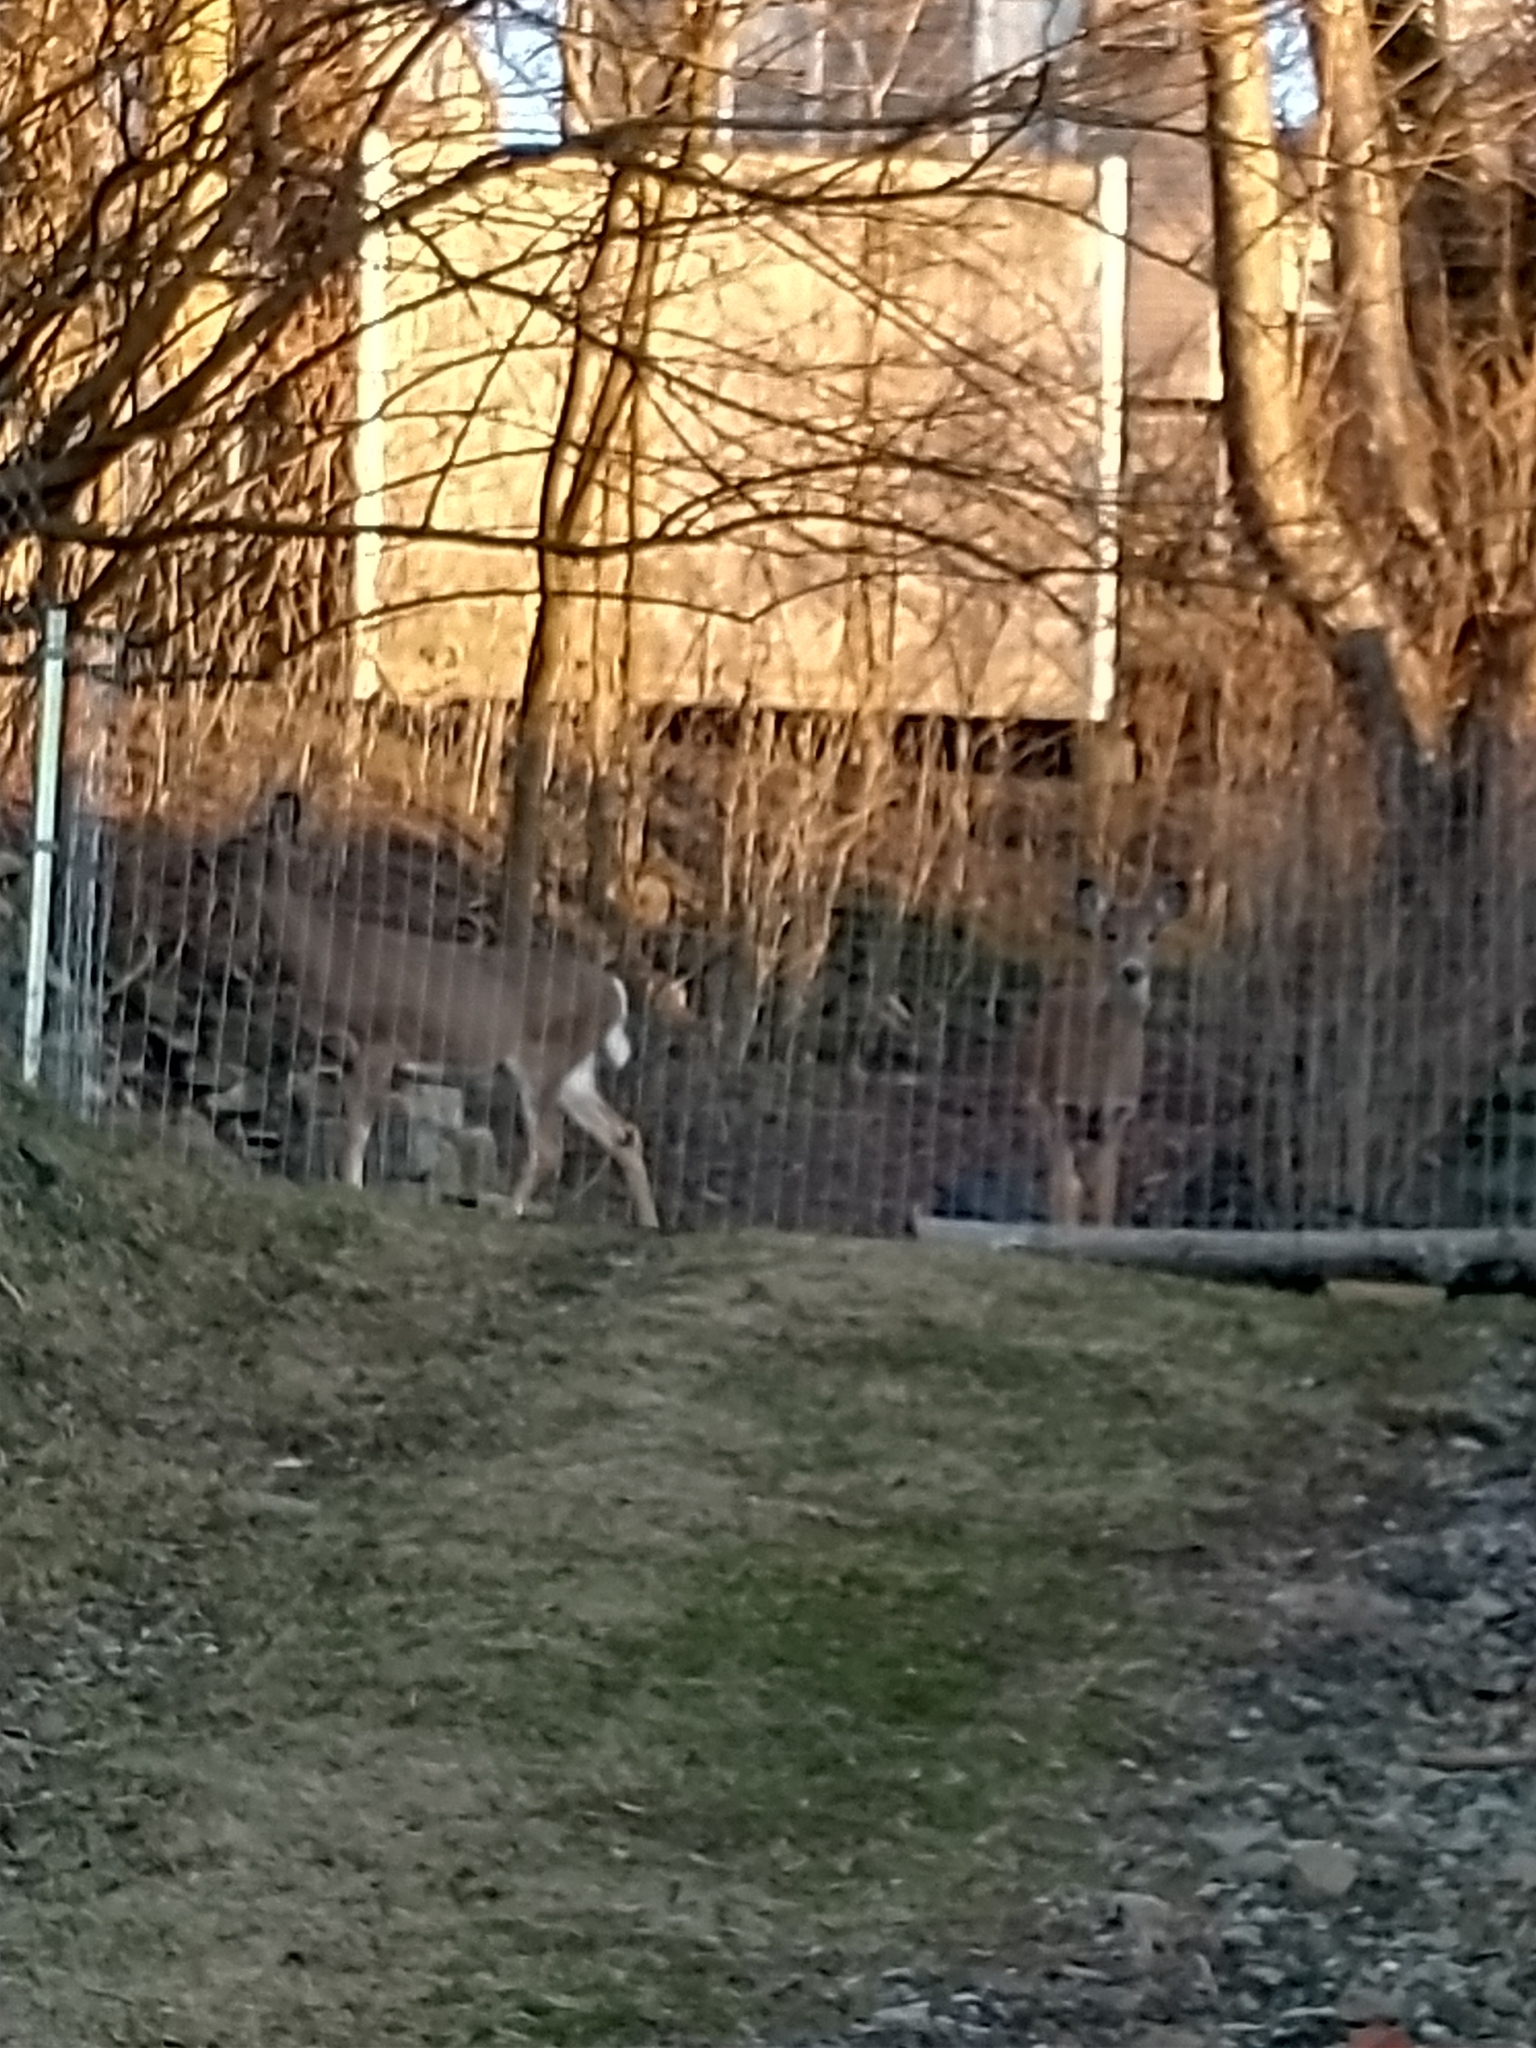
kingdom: Animalia
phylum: Chordata
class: Mammalia
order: Artiodactyla
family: Cervidae
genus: Odocoileus
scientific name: Odocoileus virginianus
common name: White-tailed deer
